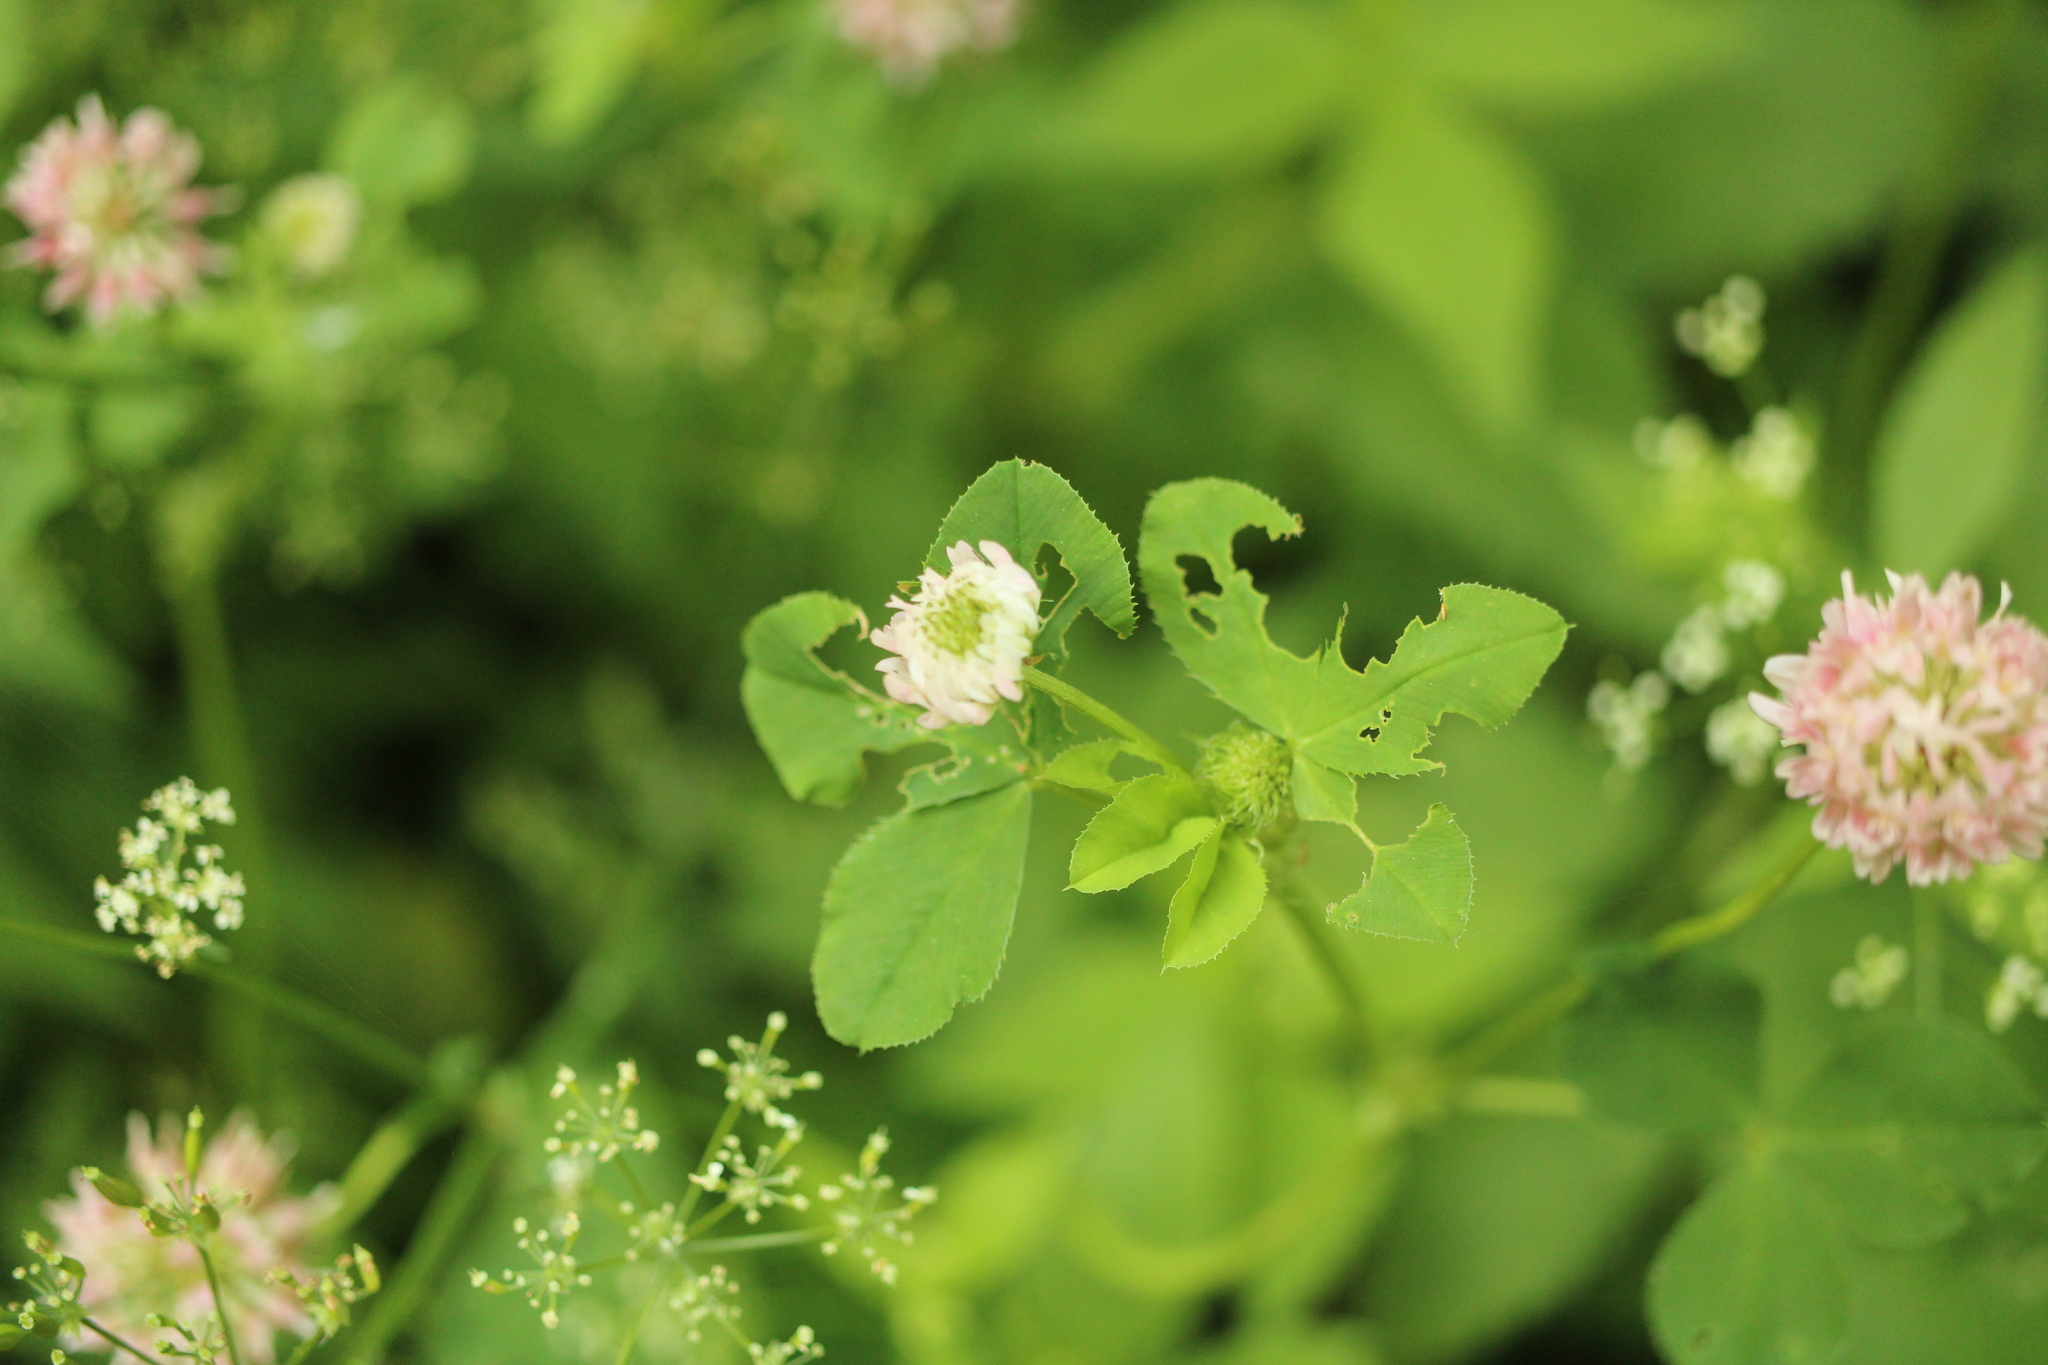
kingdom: Plantae
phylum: Tracheophyta
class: Magnoliopsida
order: Fabales
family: Fabaceae
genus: Trifolium
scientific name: Trifolium hybridum
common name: Alsike clover
